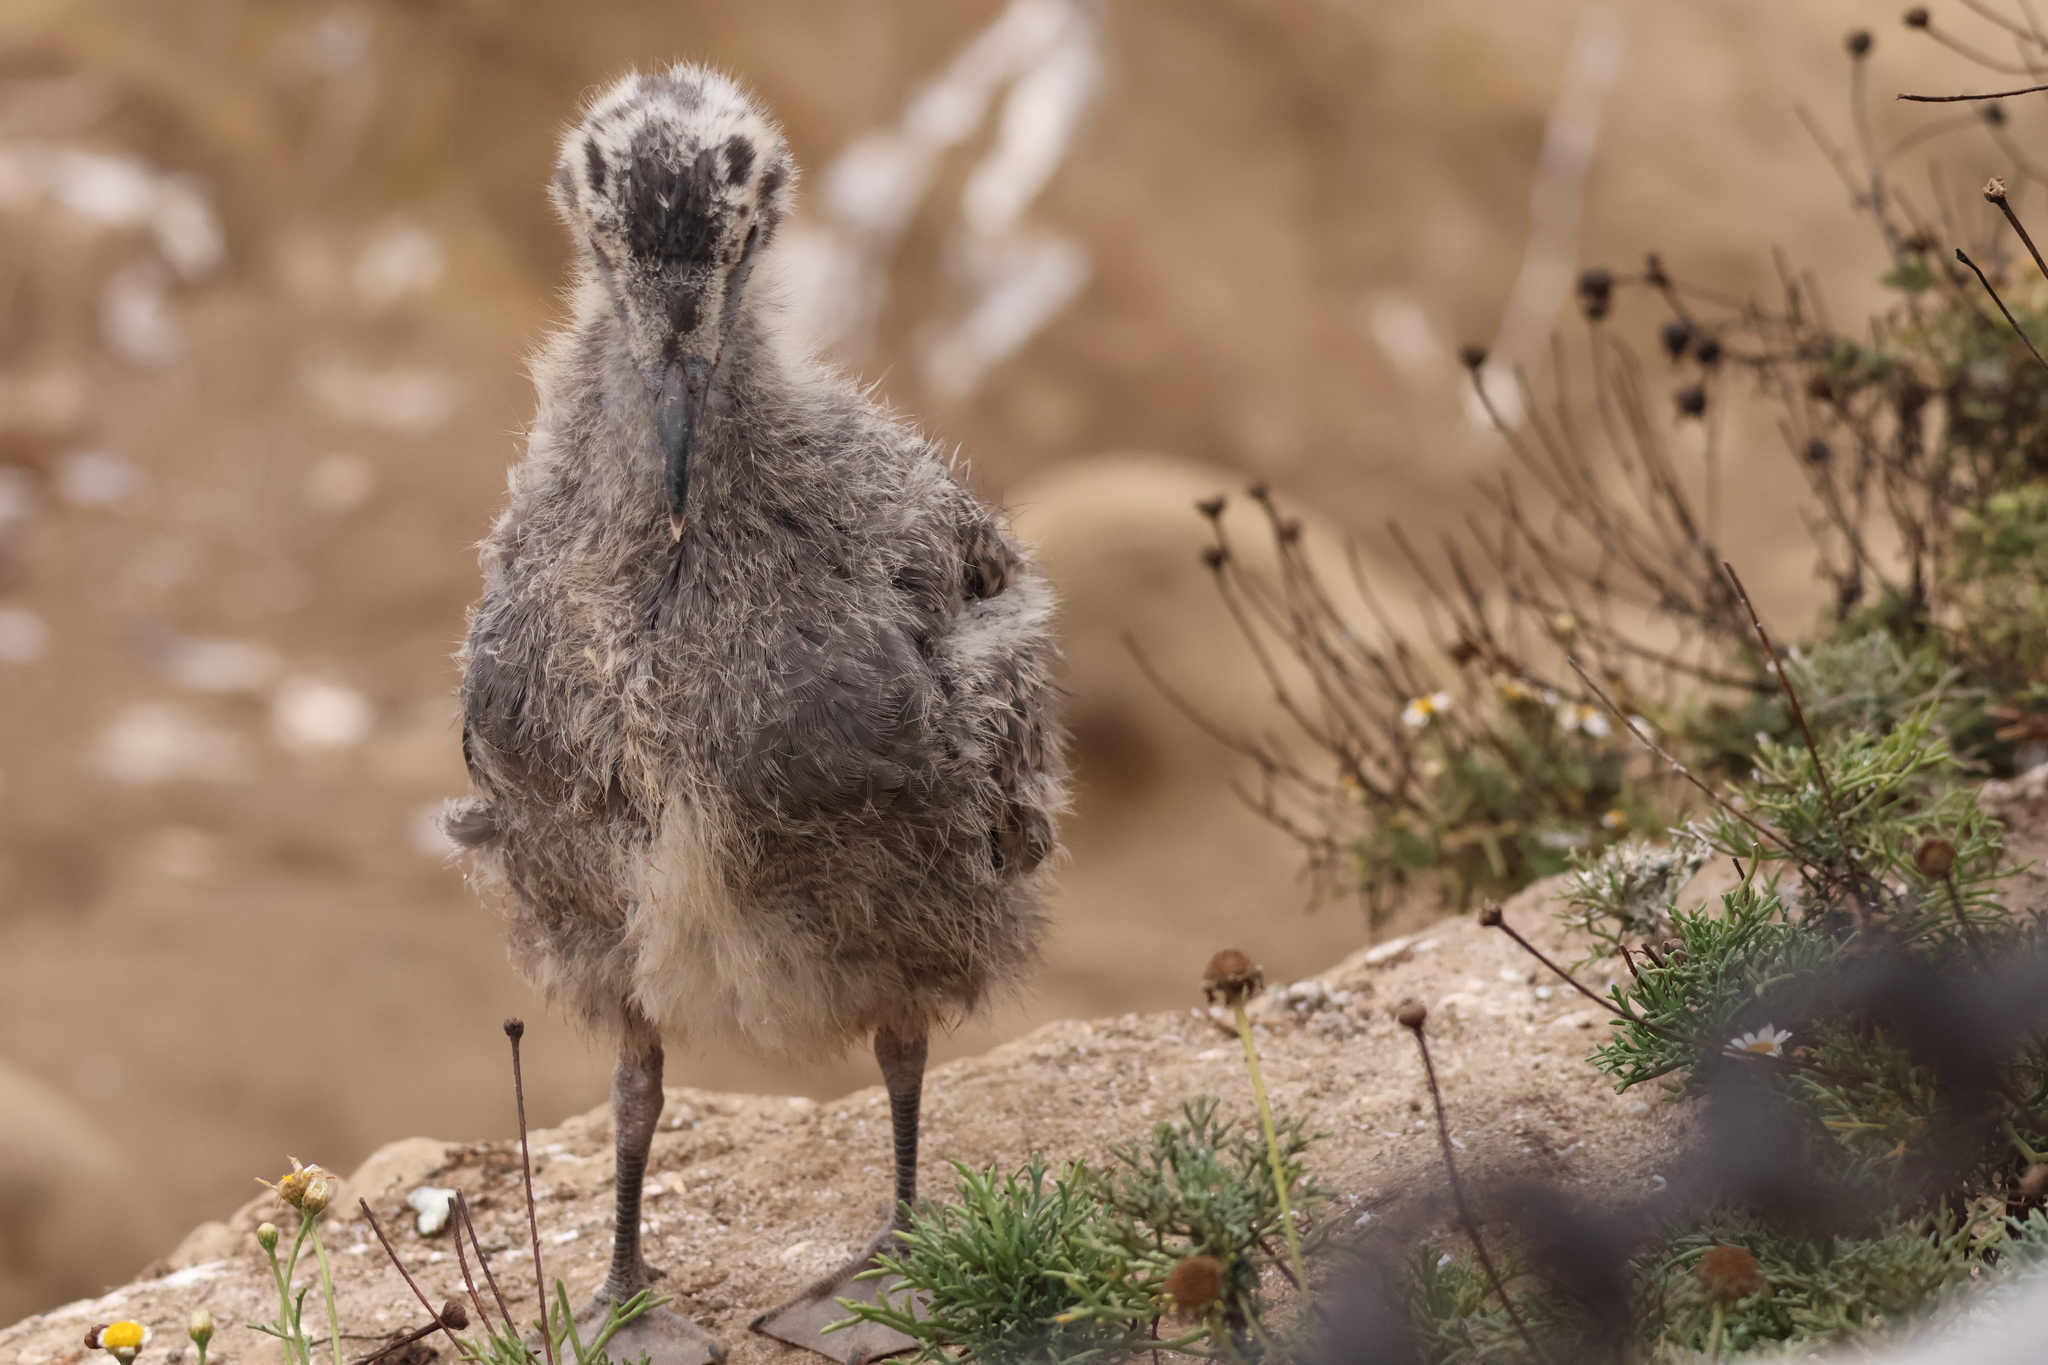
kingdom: Animalia
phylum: Chordata
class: Aves
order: Charadriiformes
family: Laridae
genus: Larus
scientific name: Larus occidentalis
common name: Western gull
